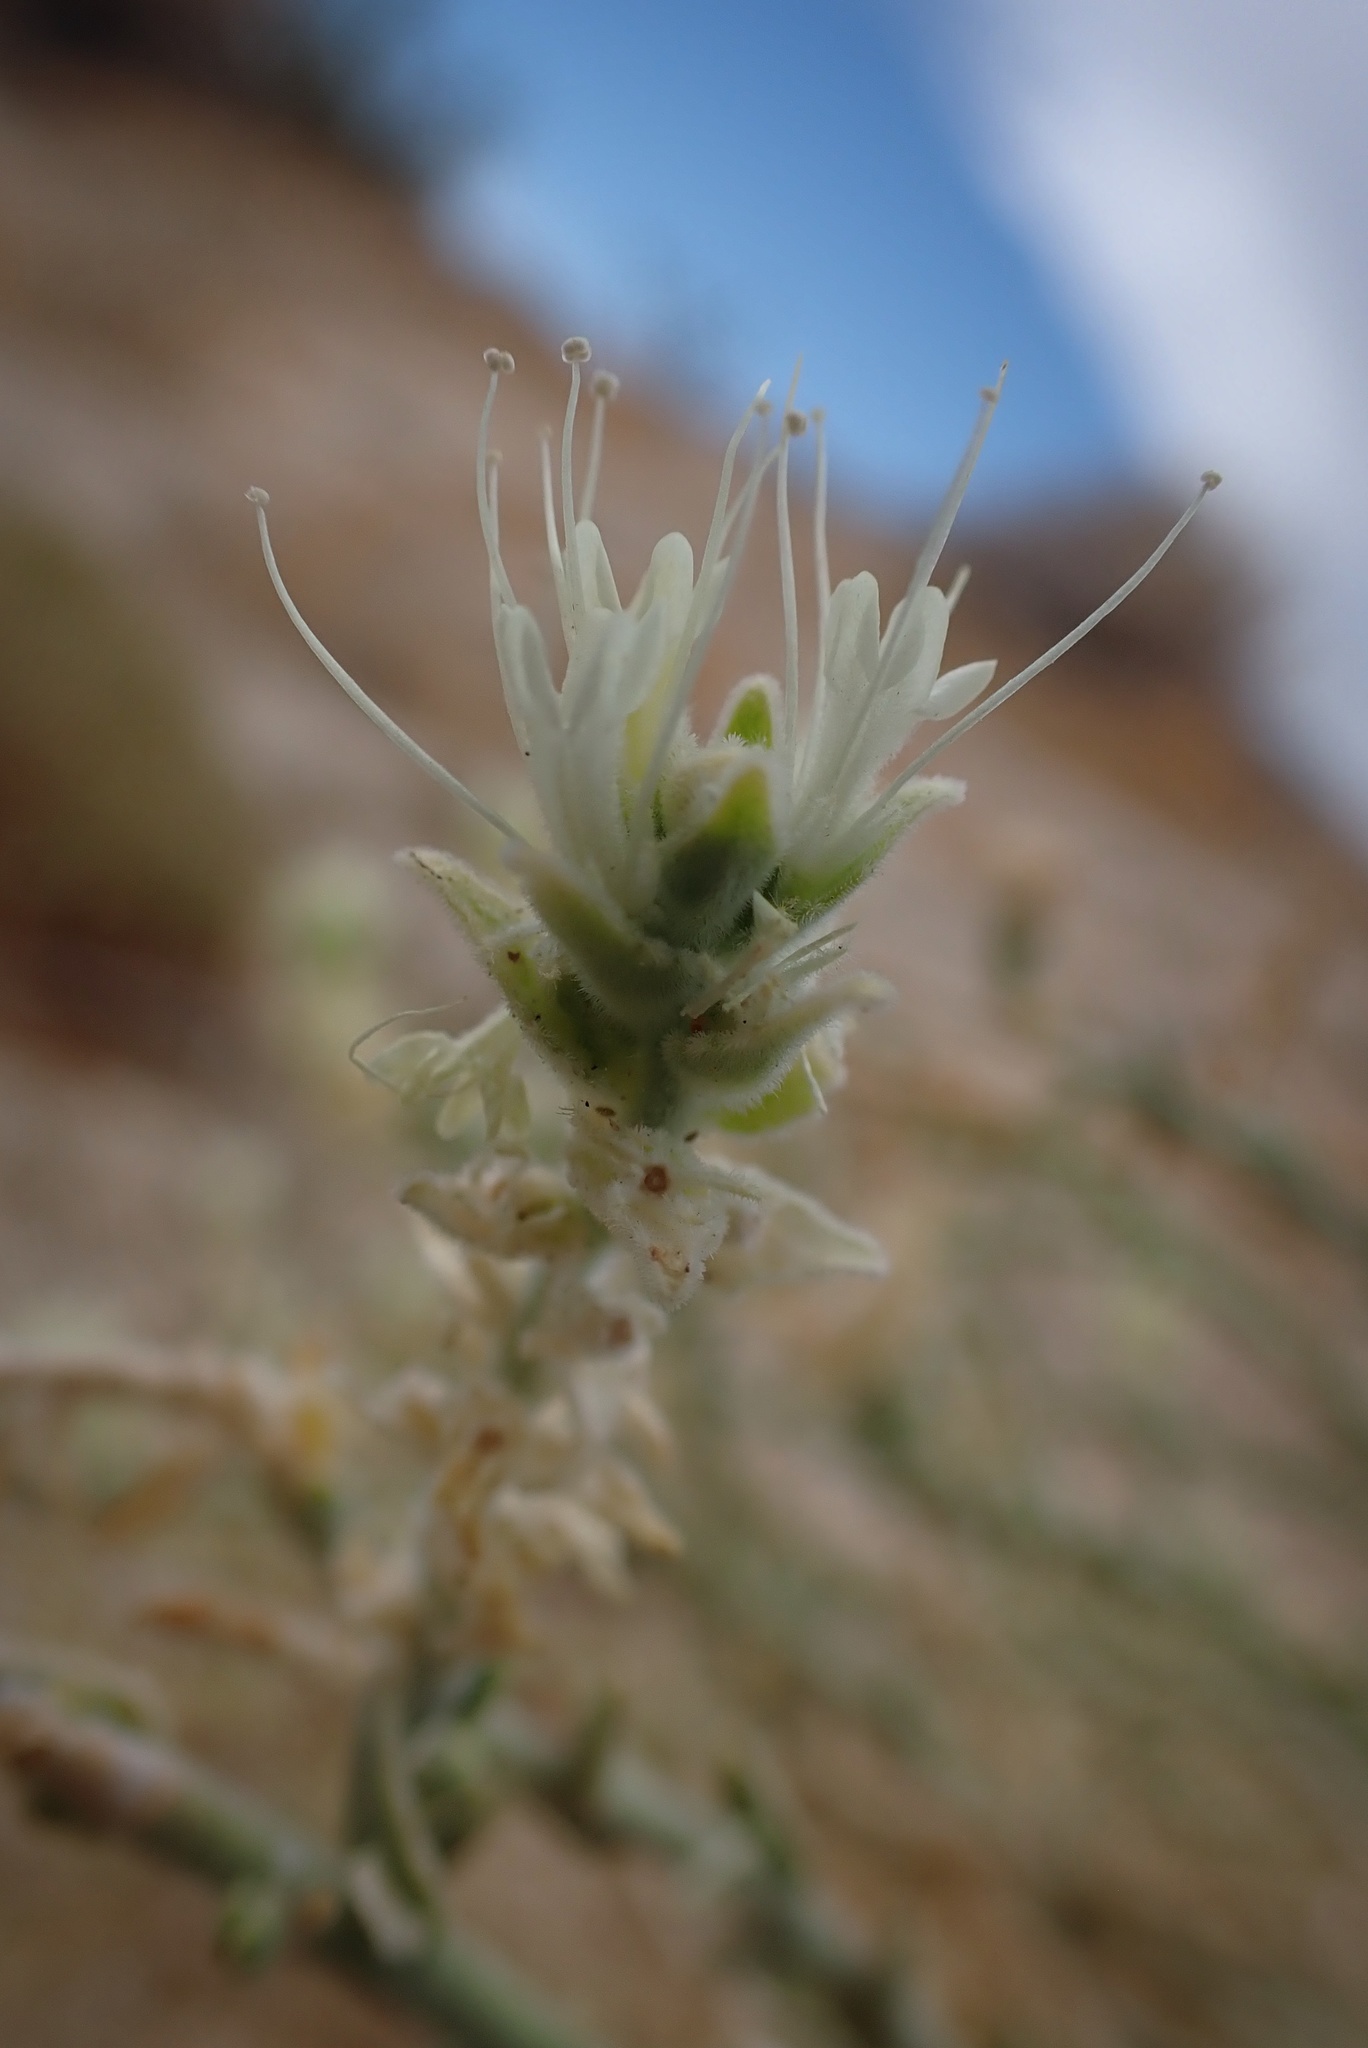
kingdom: Plantae
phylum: Tracheophyta
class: Magnoliopsida
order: Cornales
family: Loasaceae
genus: Petalonyx
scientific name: Petalonyx thurberi
